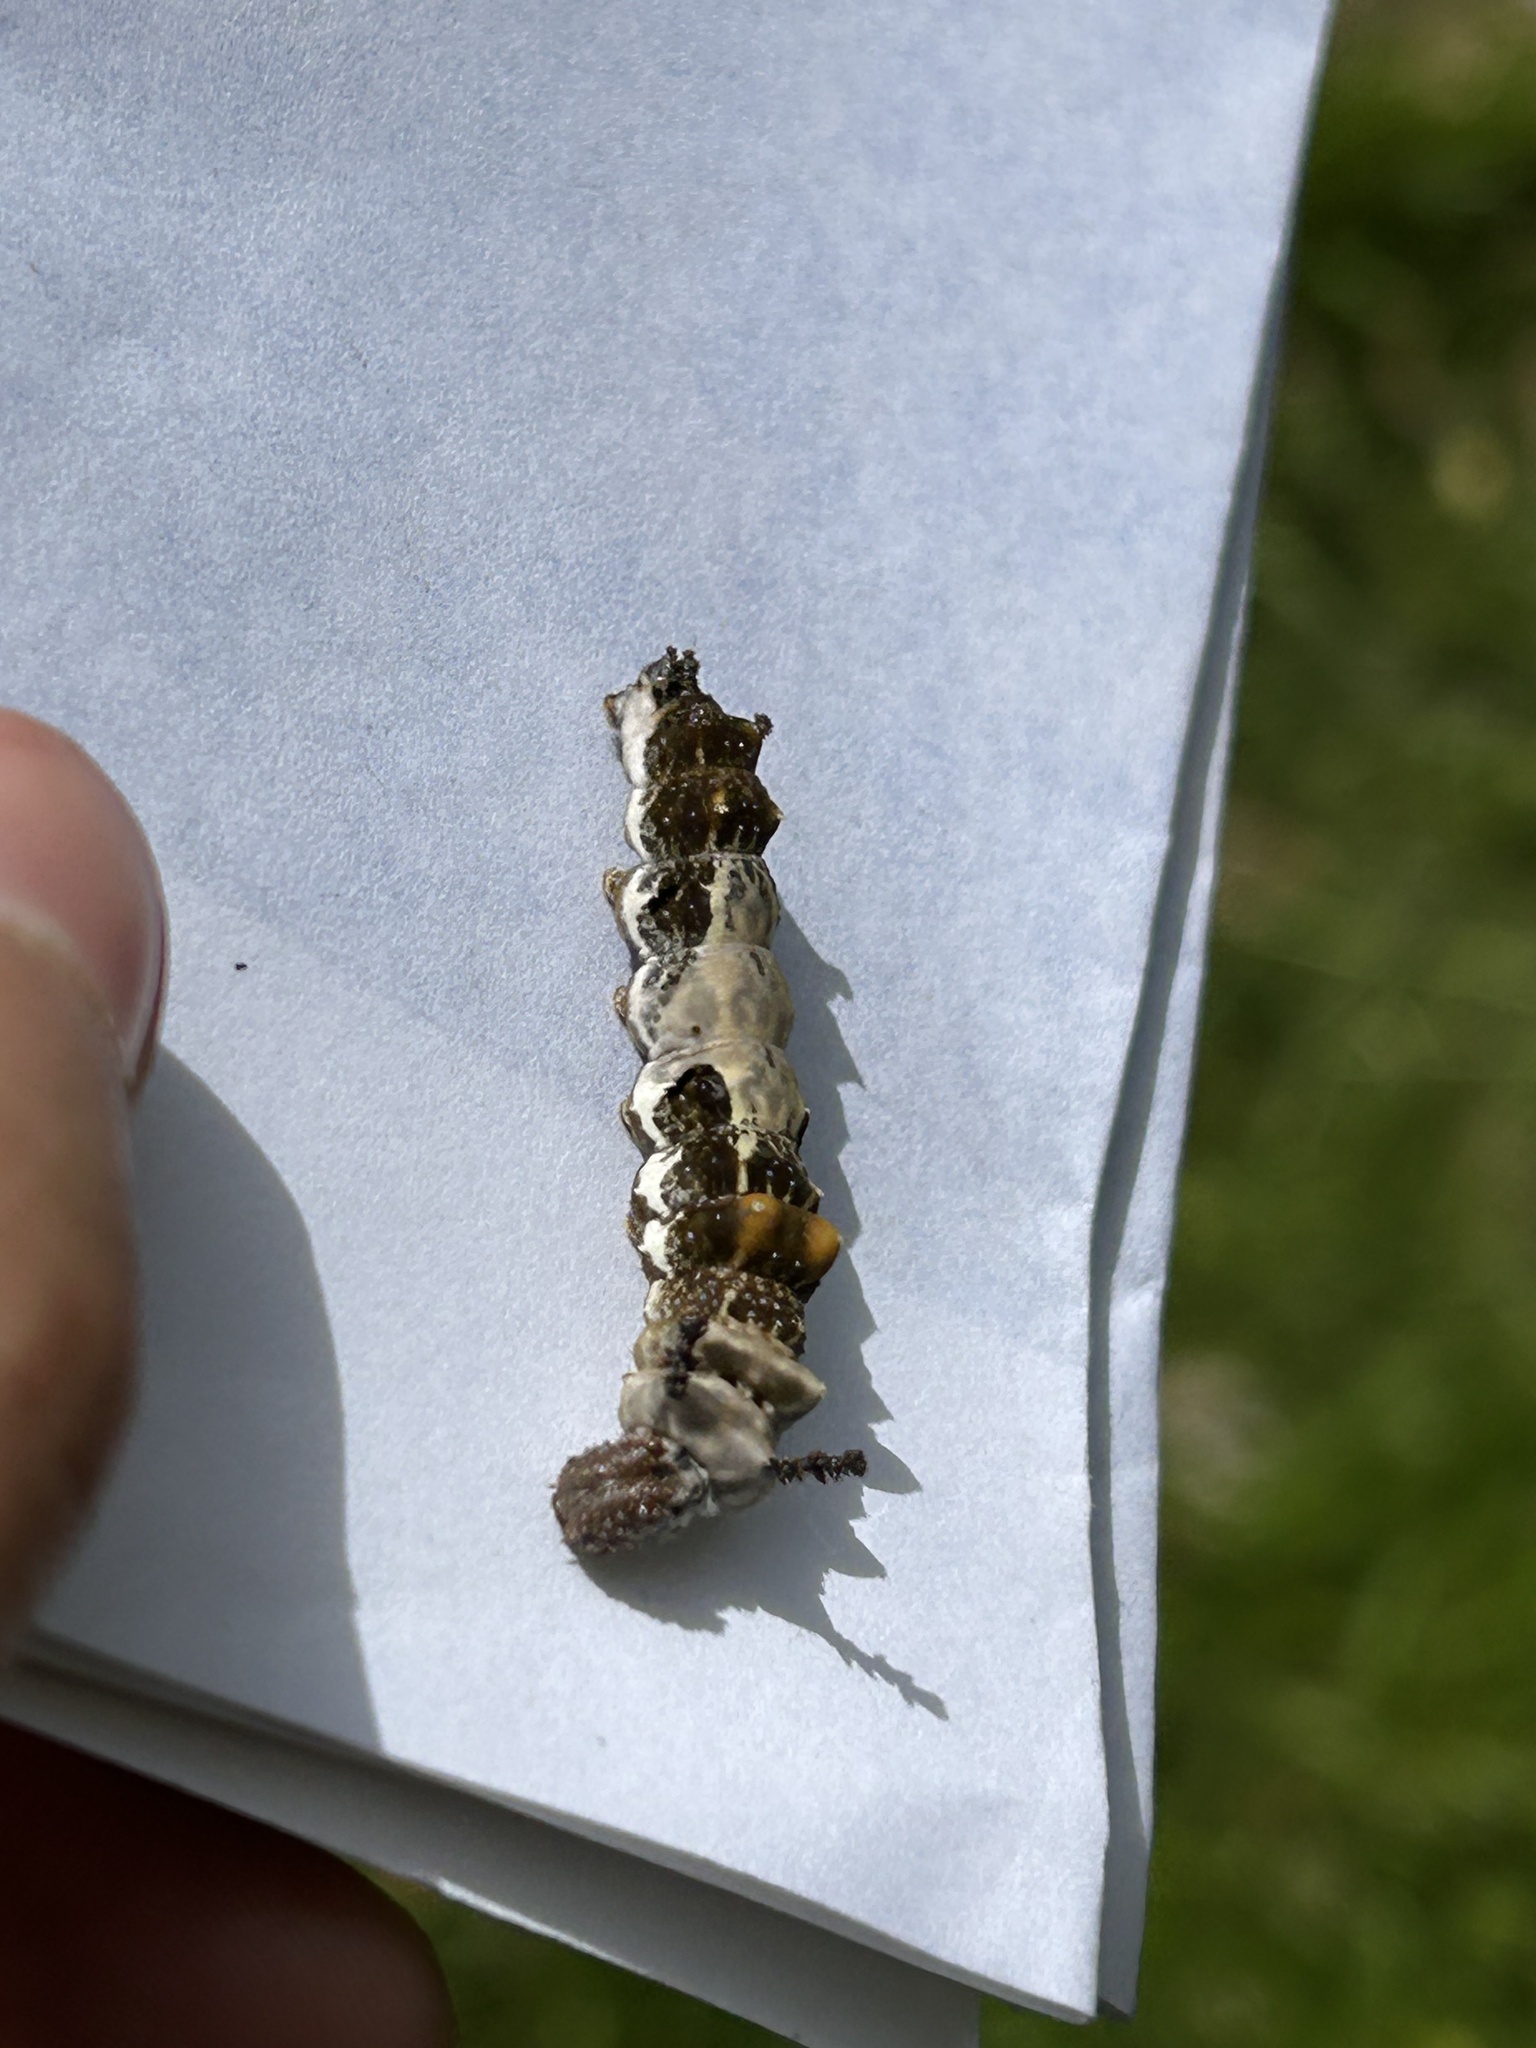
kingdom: Animalia
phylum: Arthropoda
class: Insecta
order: Lepidoptera
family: Nymphalidae
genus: Limenitis
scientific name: Limenitis lorquini
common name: Lorquin's admiral
